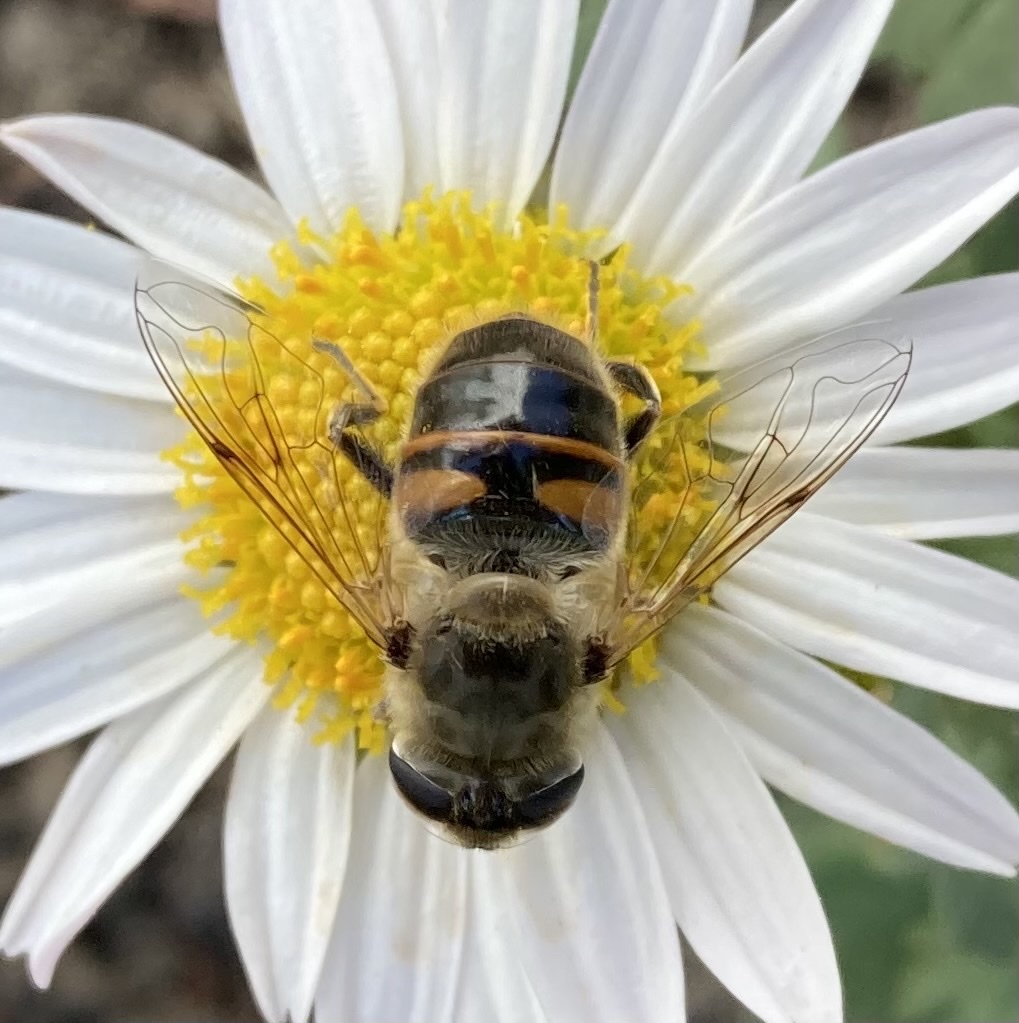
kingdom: Animalia
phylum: Arthropoda
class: Insecta
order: Diptera
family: Syrphidae
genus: Eristalis
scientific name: Eristalis tenax
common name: Drone fly
